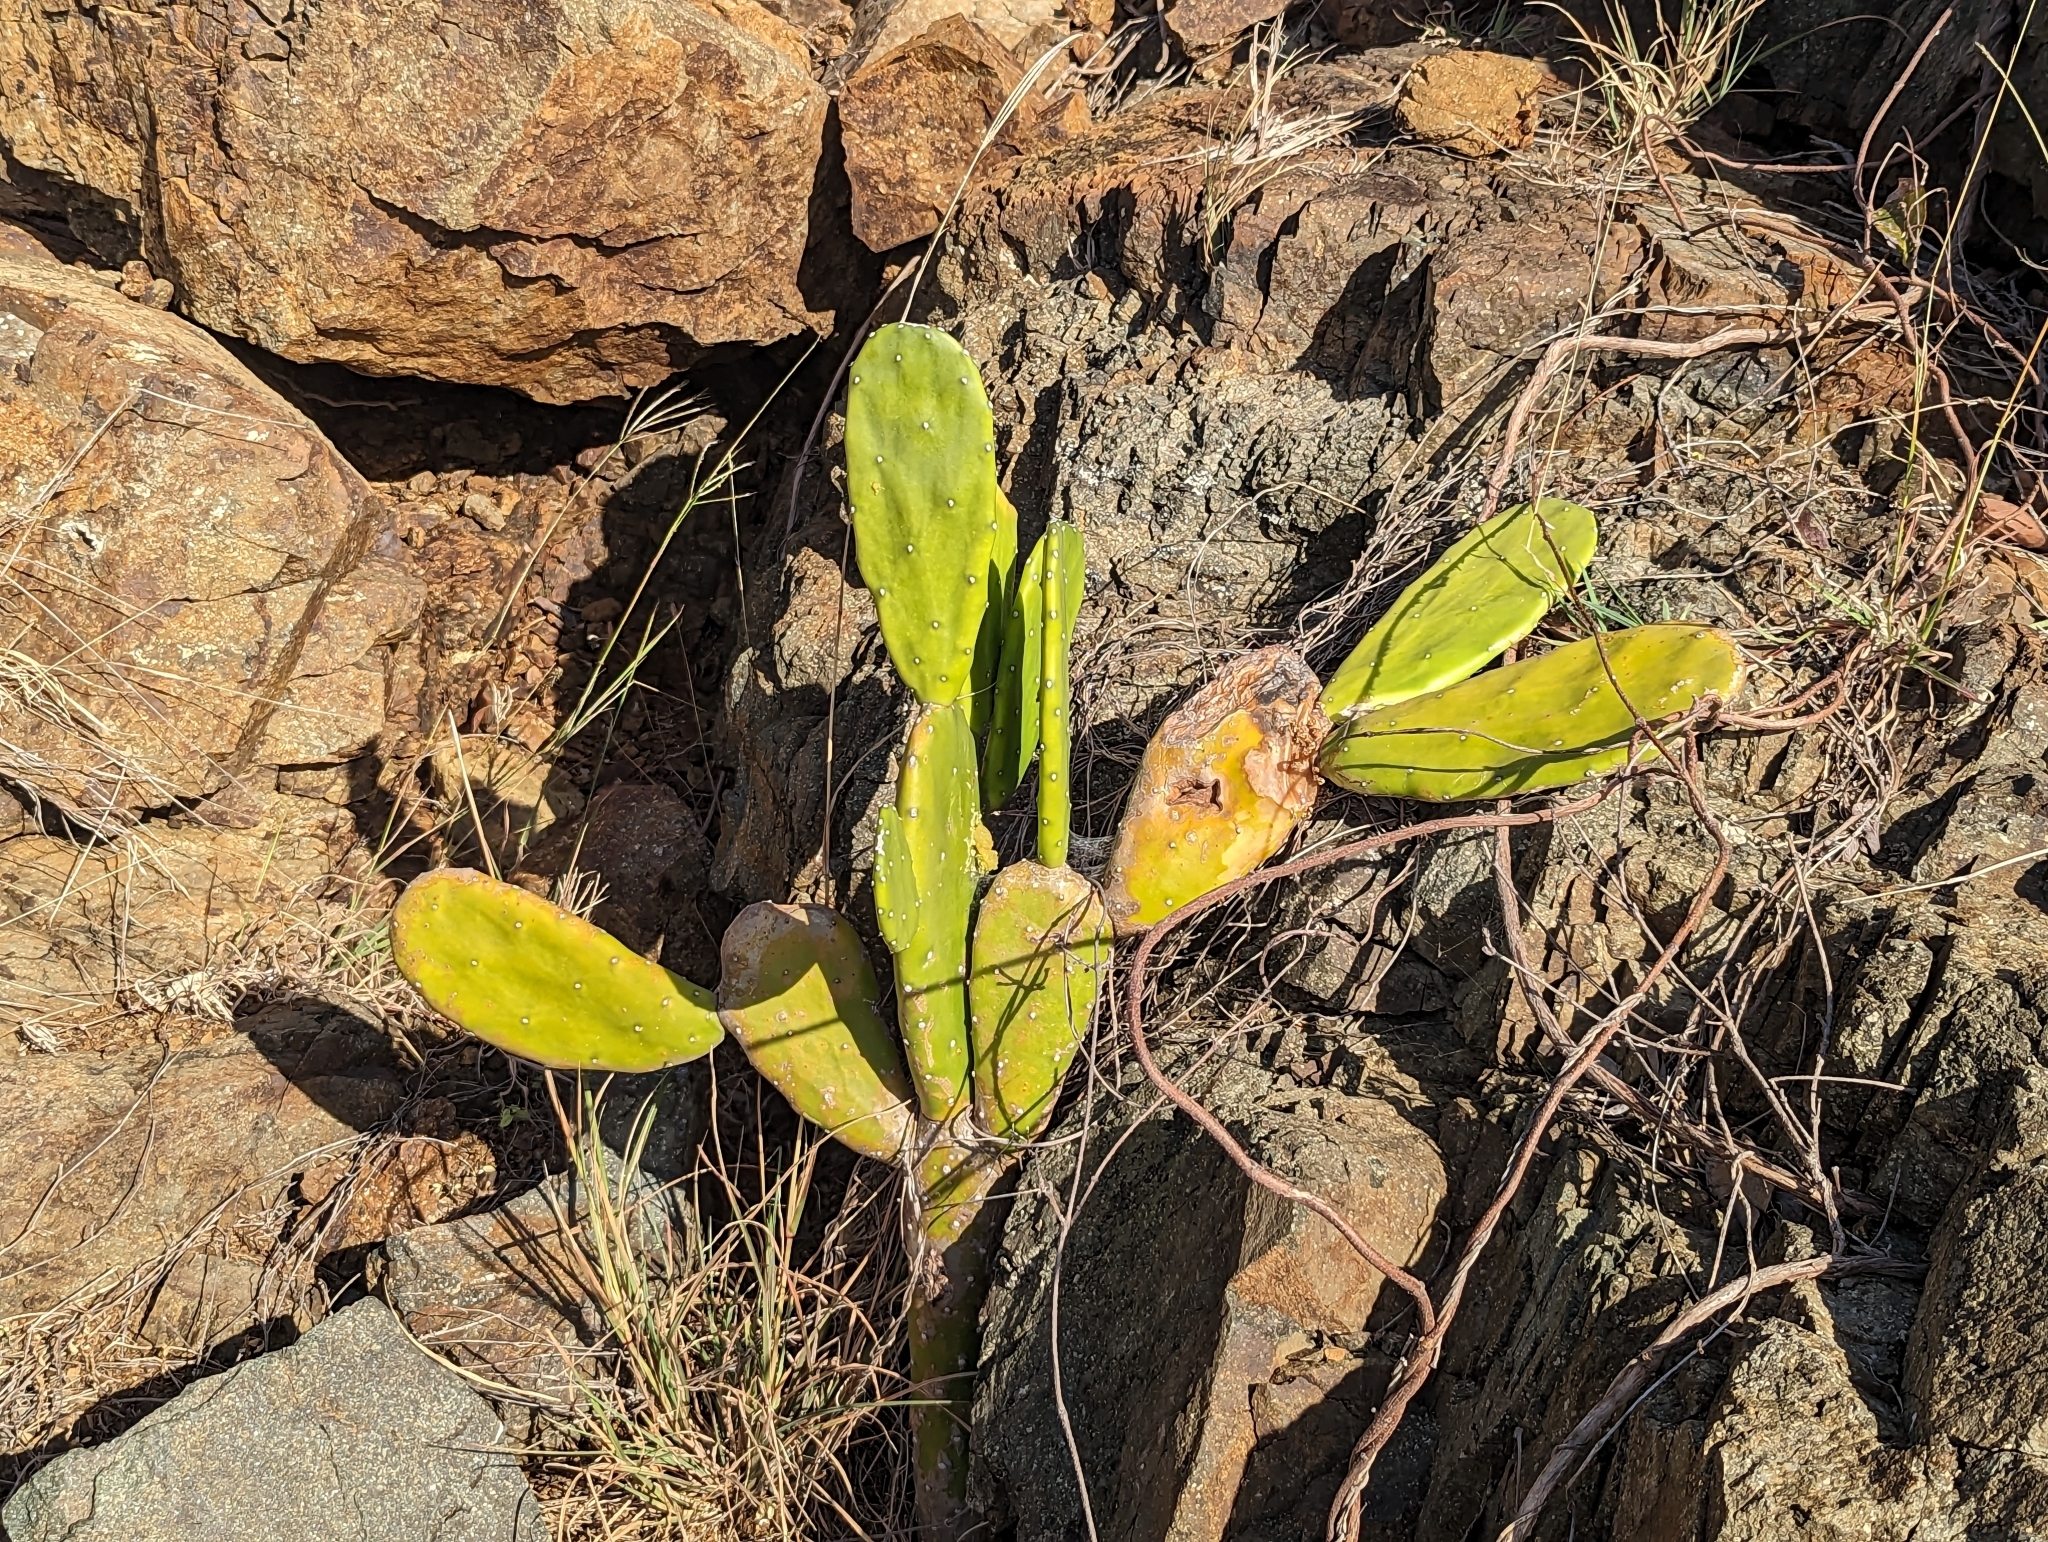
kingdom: Plantae
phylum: Tracheophyta
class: Magnoliopsida
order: Caryophyllales
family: Cactaceae
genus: Opuntia
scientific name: Opuntia cochenillifera
